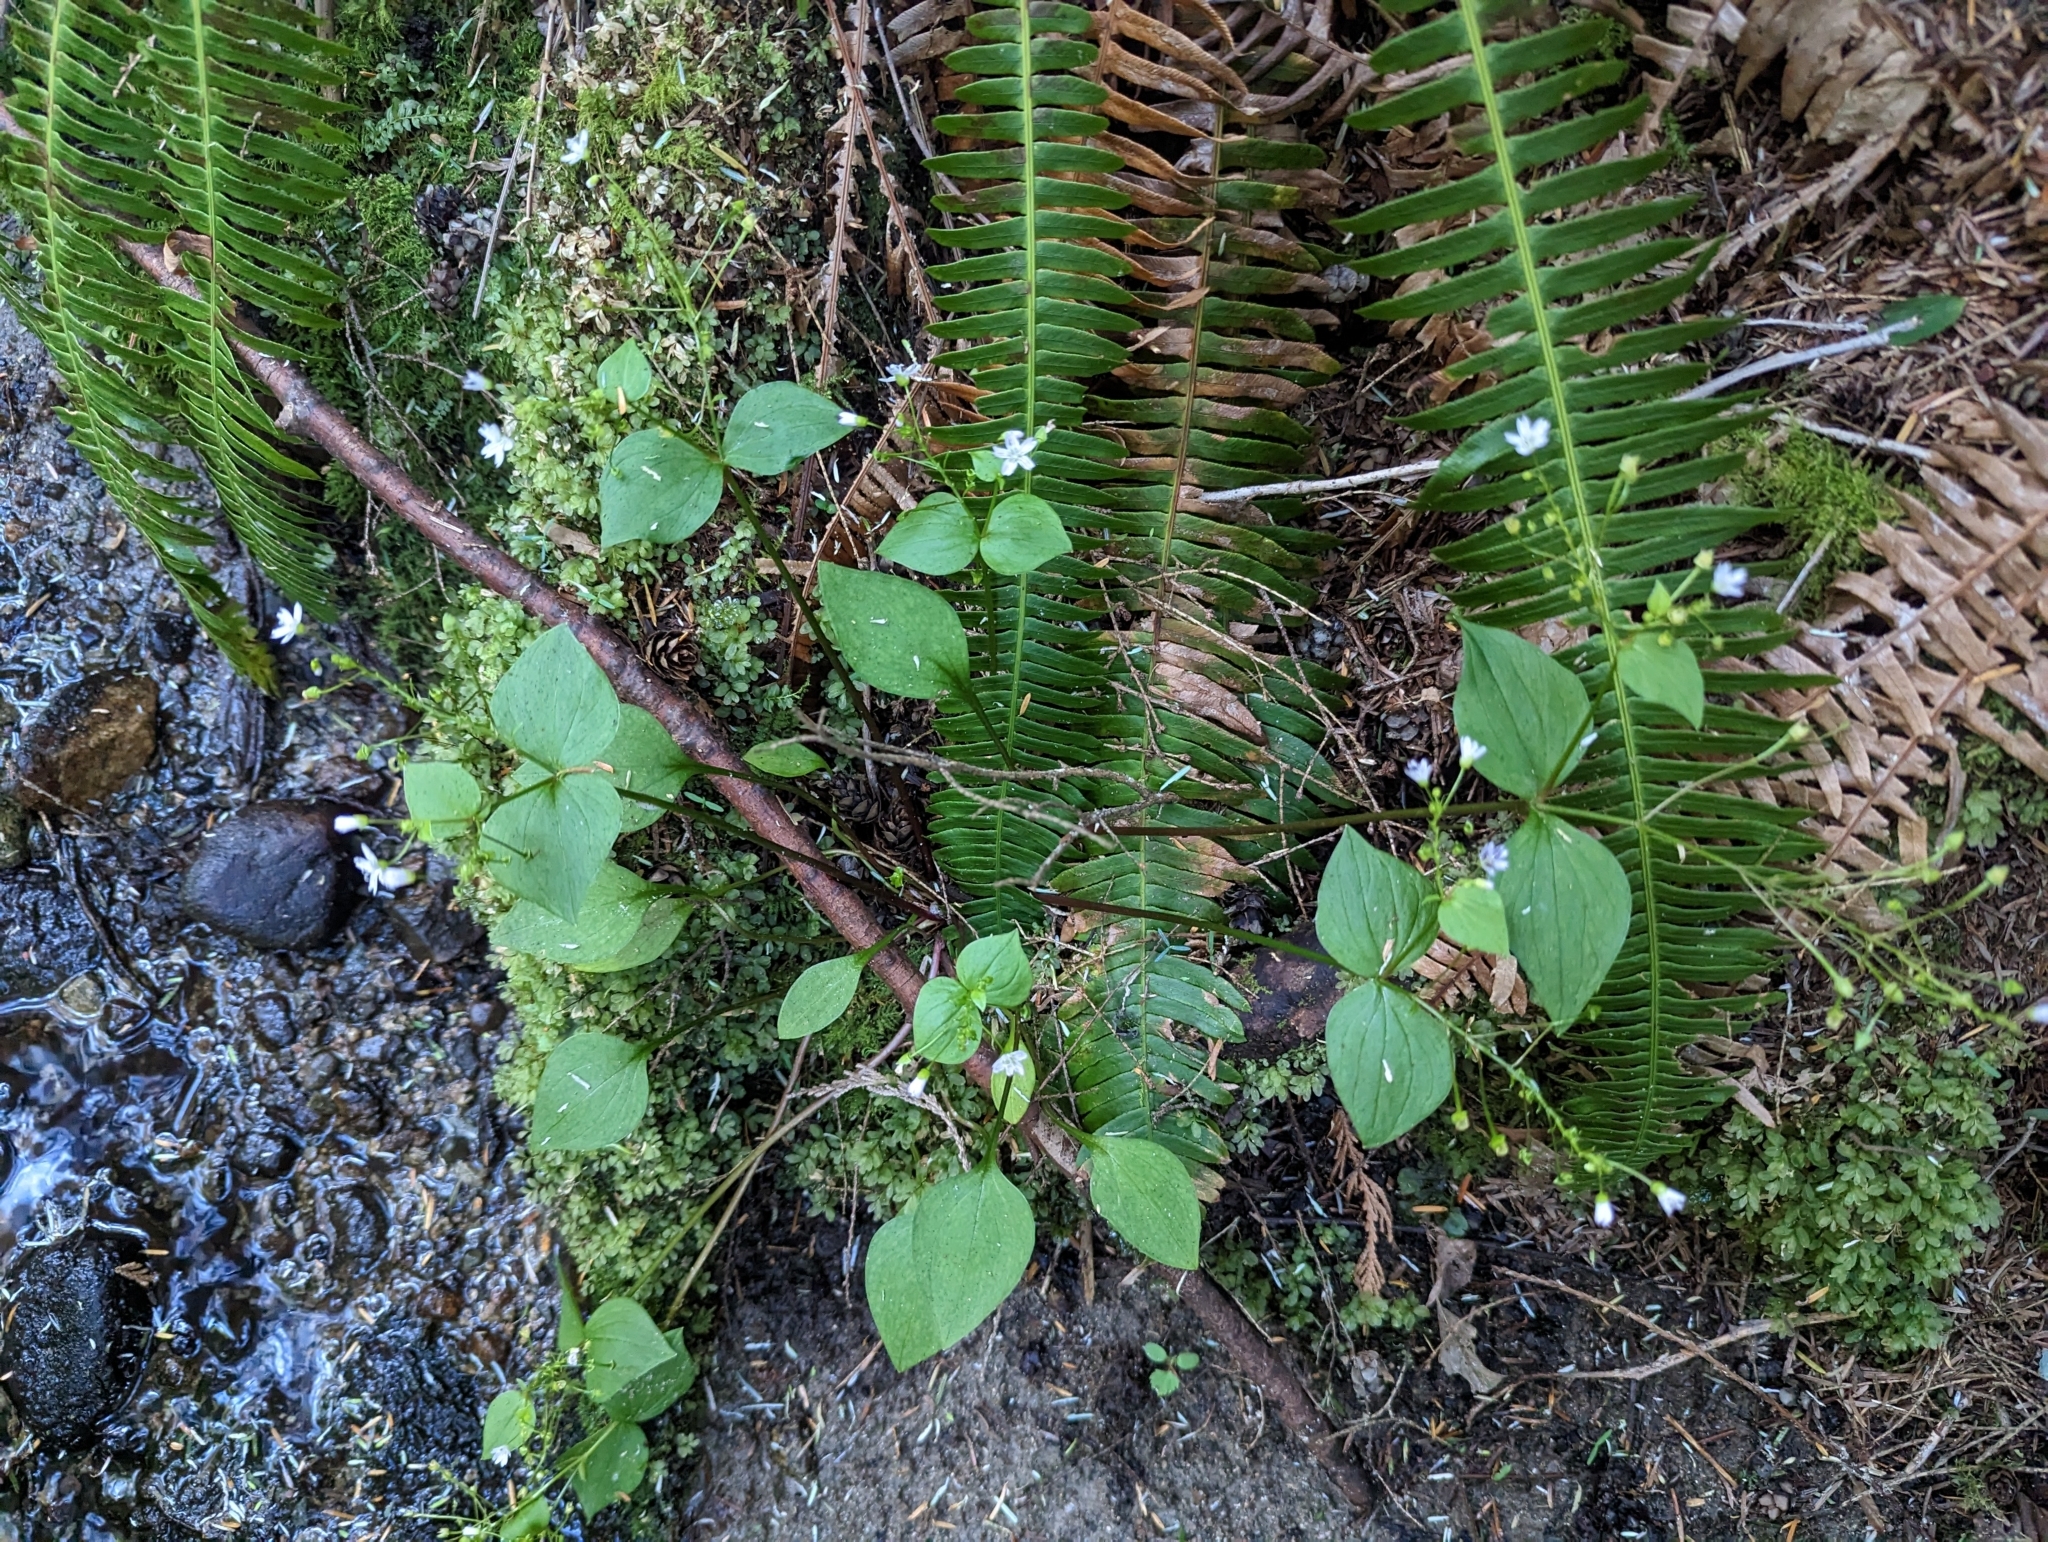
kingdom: Plantae
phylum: Tracheophyta
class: Magnoliopsida
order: Caryophyllales
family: Montiaceae
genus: Claytonia
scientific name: Claytonia sibirica
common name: Pink purslane
